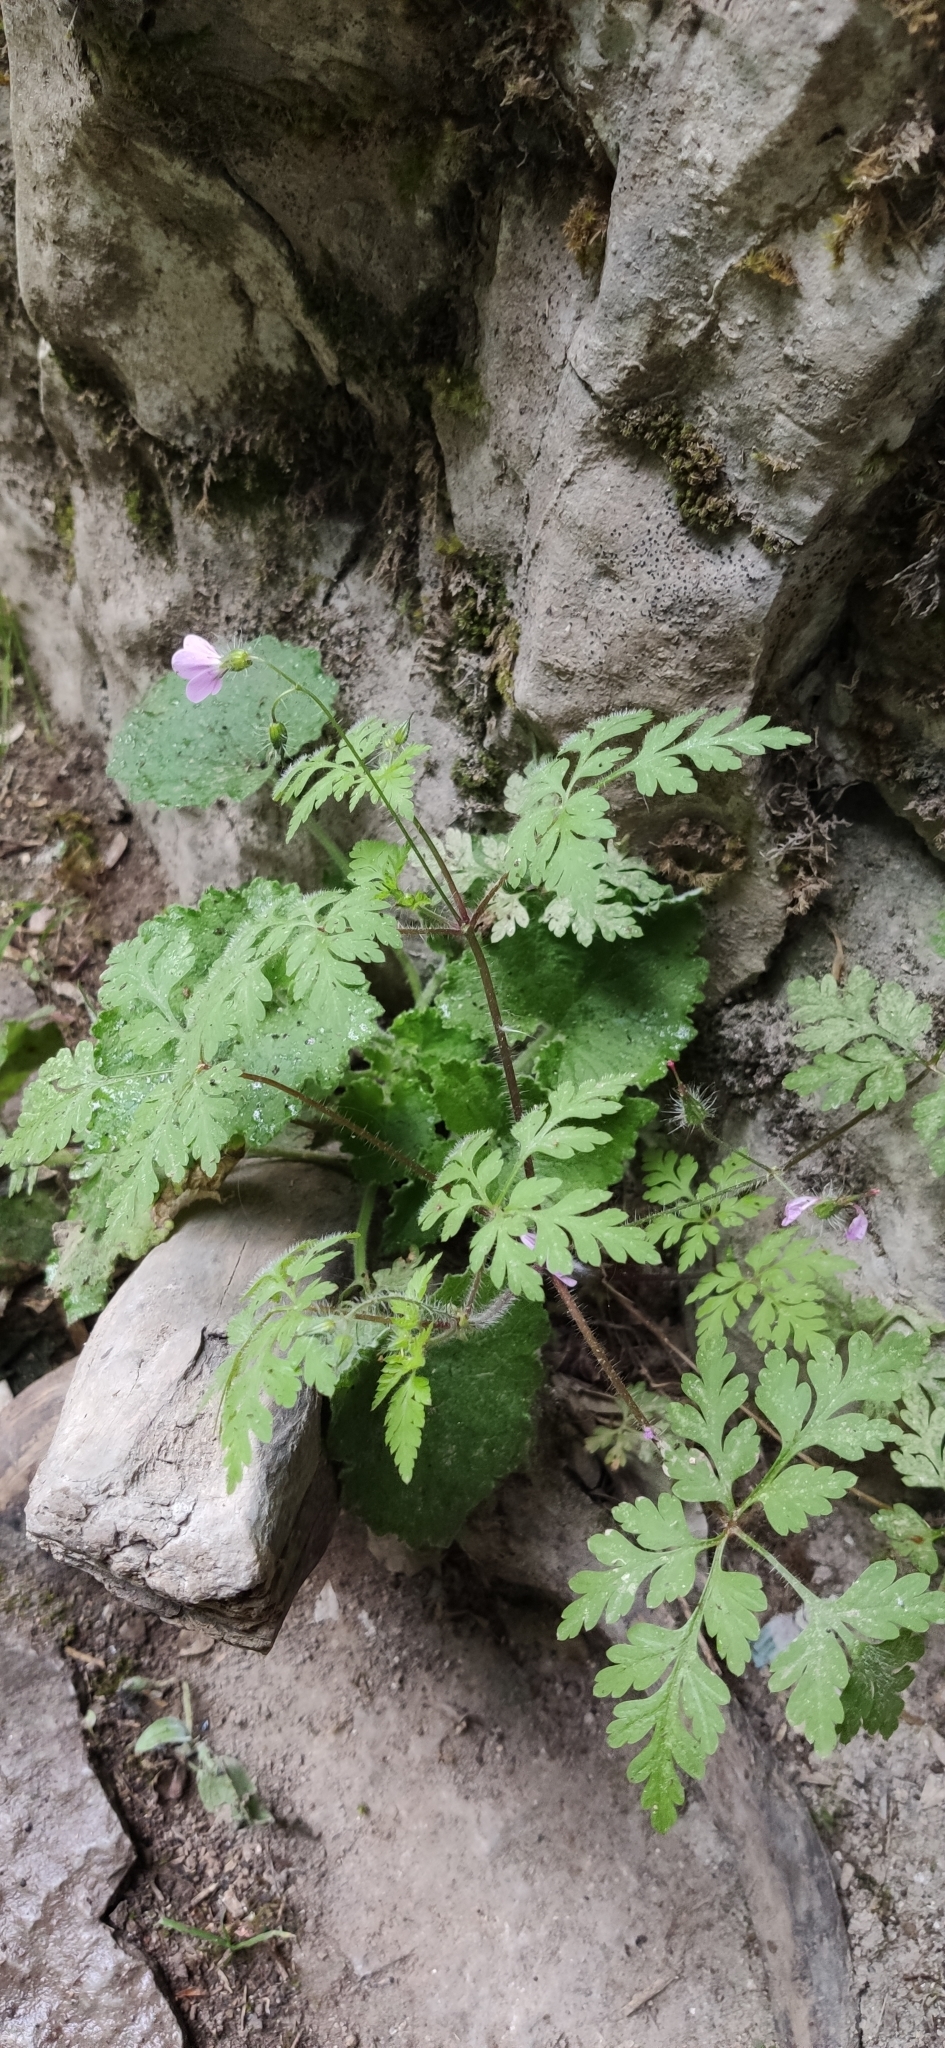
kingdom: Plantae
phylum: Tracheophyta
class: Magnoliopsida
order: Geraniales
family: Geraniaceae
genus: Geranium
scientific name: Geranium robertianum
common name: Herb-robert
